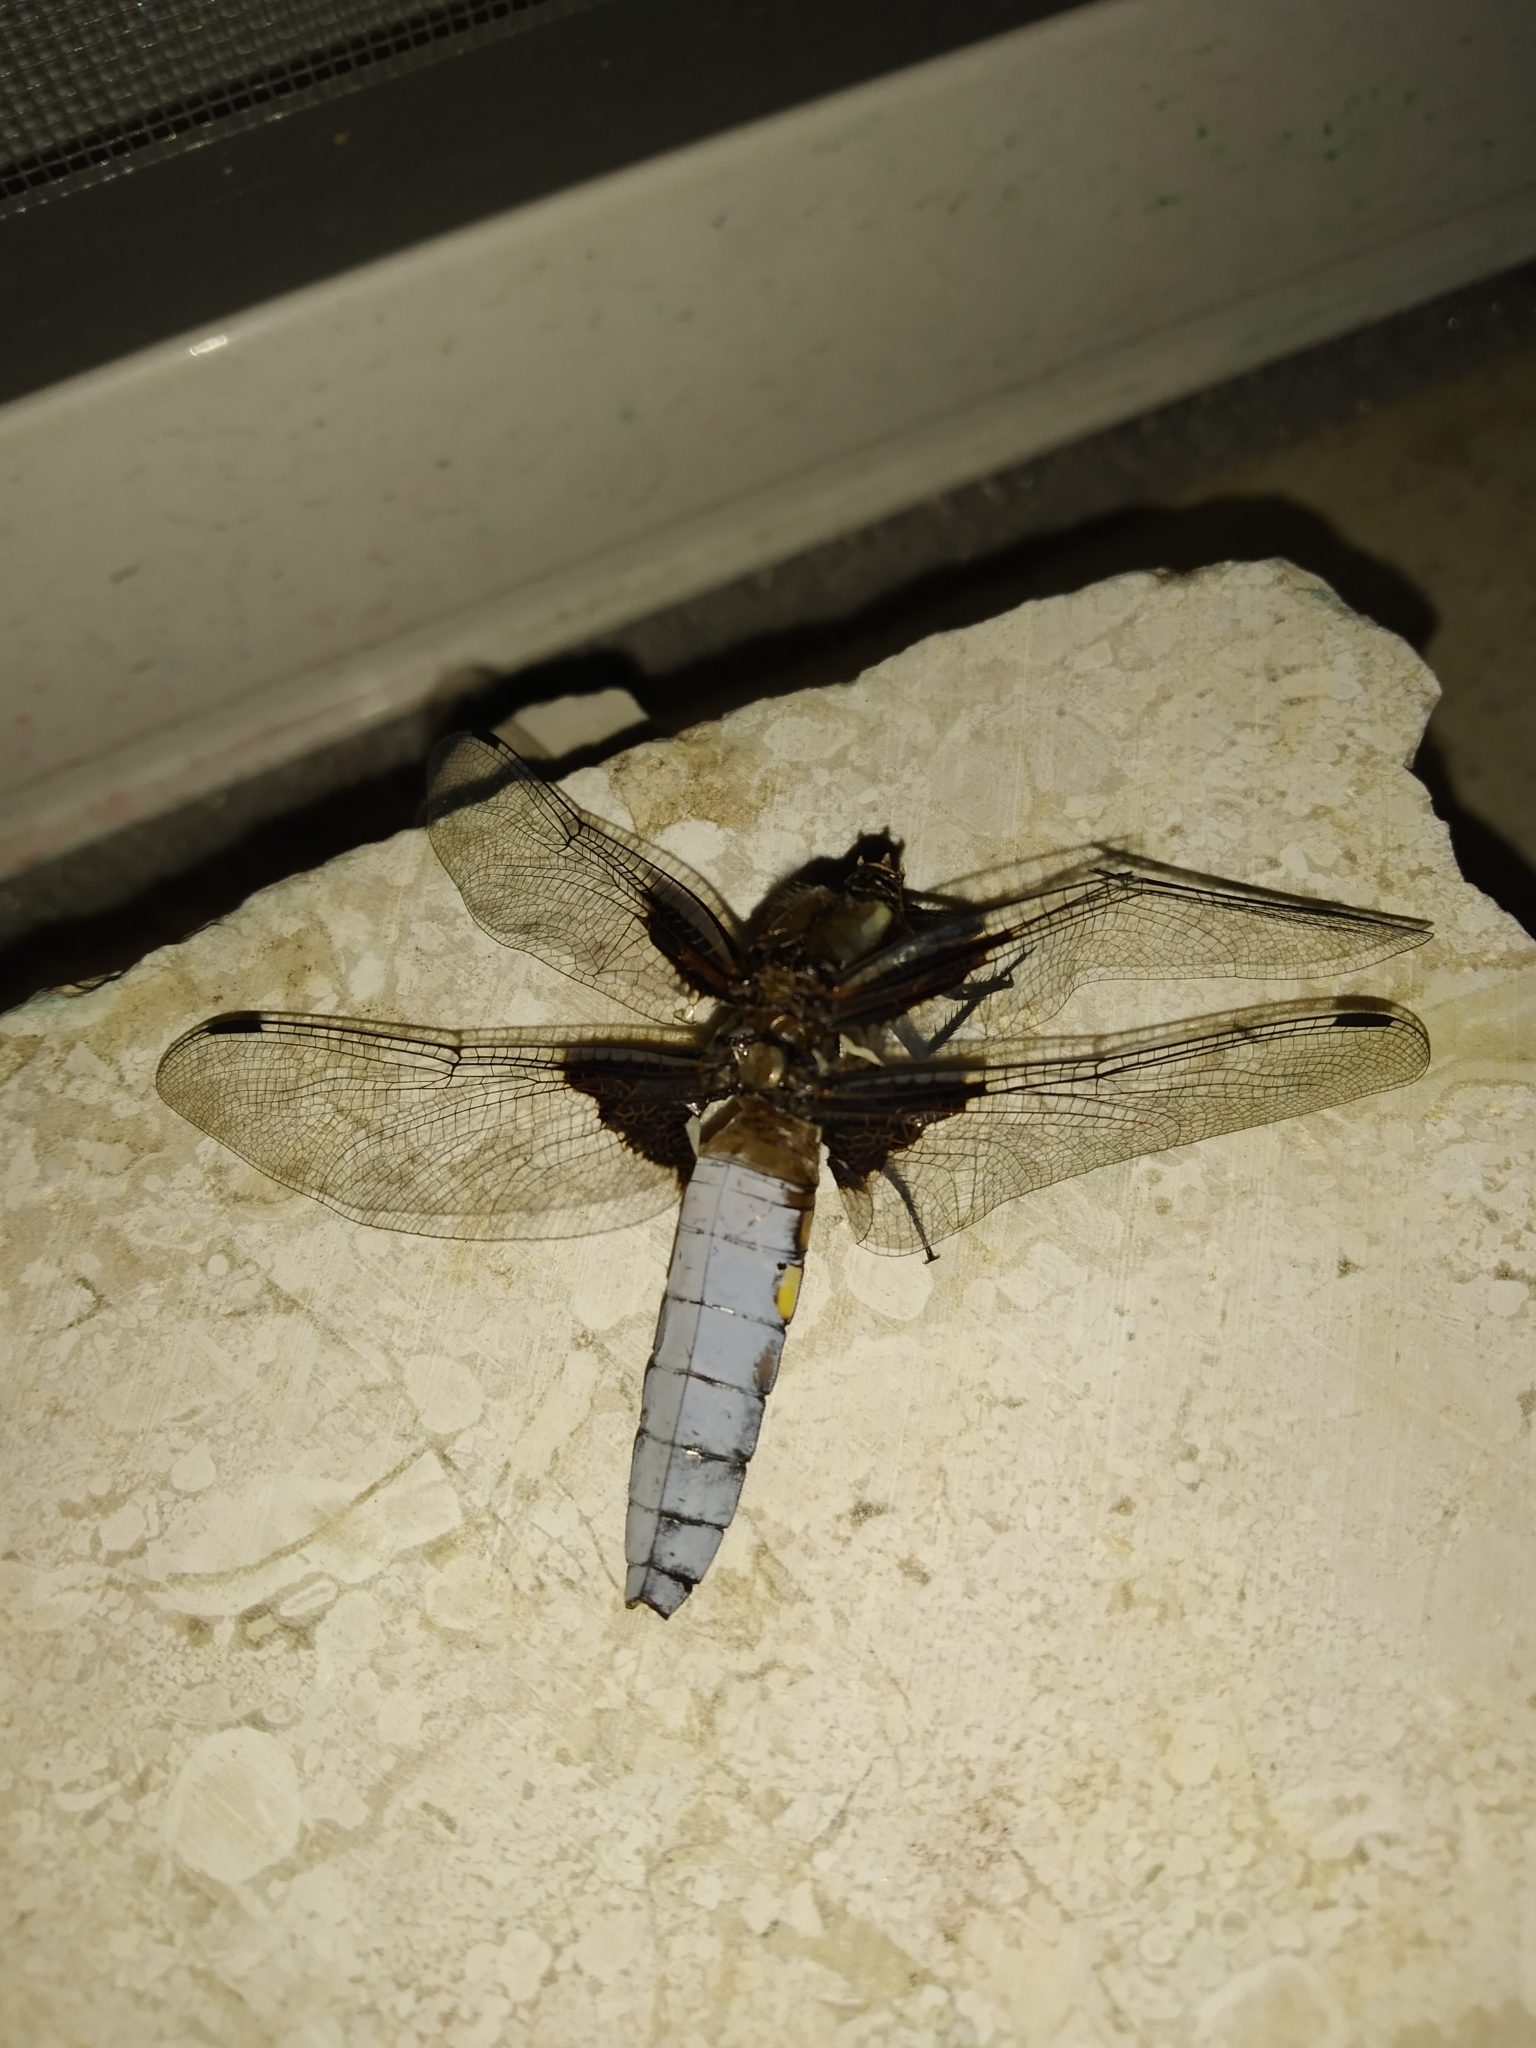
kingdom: Animalia
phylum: Arthropoda
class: Insecta
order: Odonata
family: Libellulidae
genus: Libellula
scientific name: Libellula depressa
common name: Broad-bodied chaser
